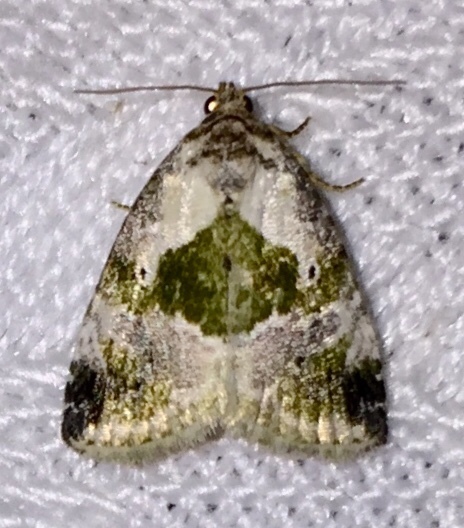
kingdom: Animalia
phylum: Arthropoda
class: Insecta
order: Lepidoptera
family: Noctuidae
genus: Maliattha
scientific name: Maliattha synochitis
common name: Black-dotted glyph
